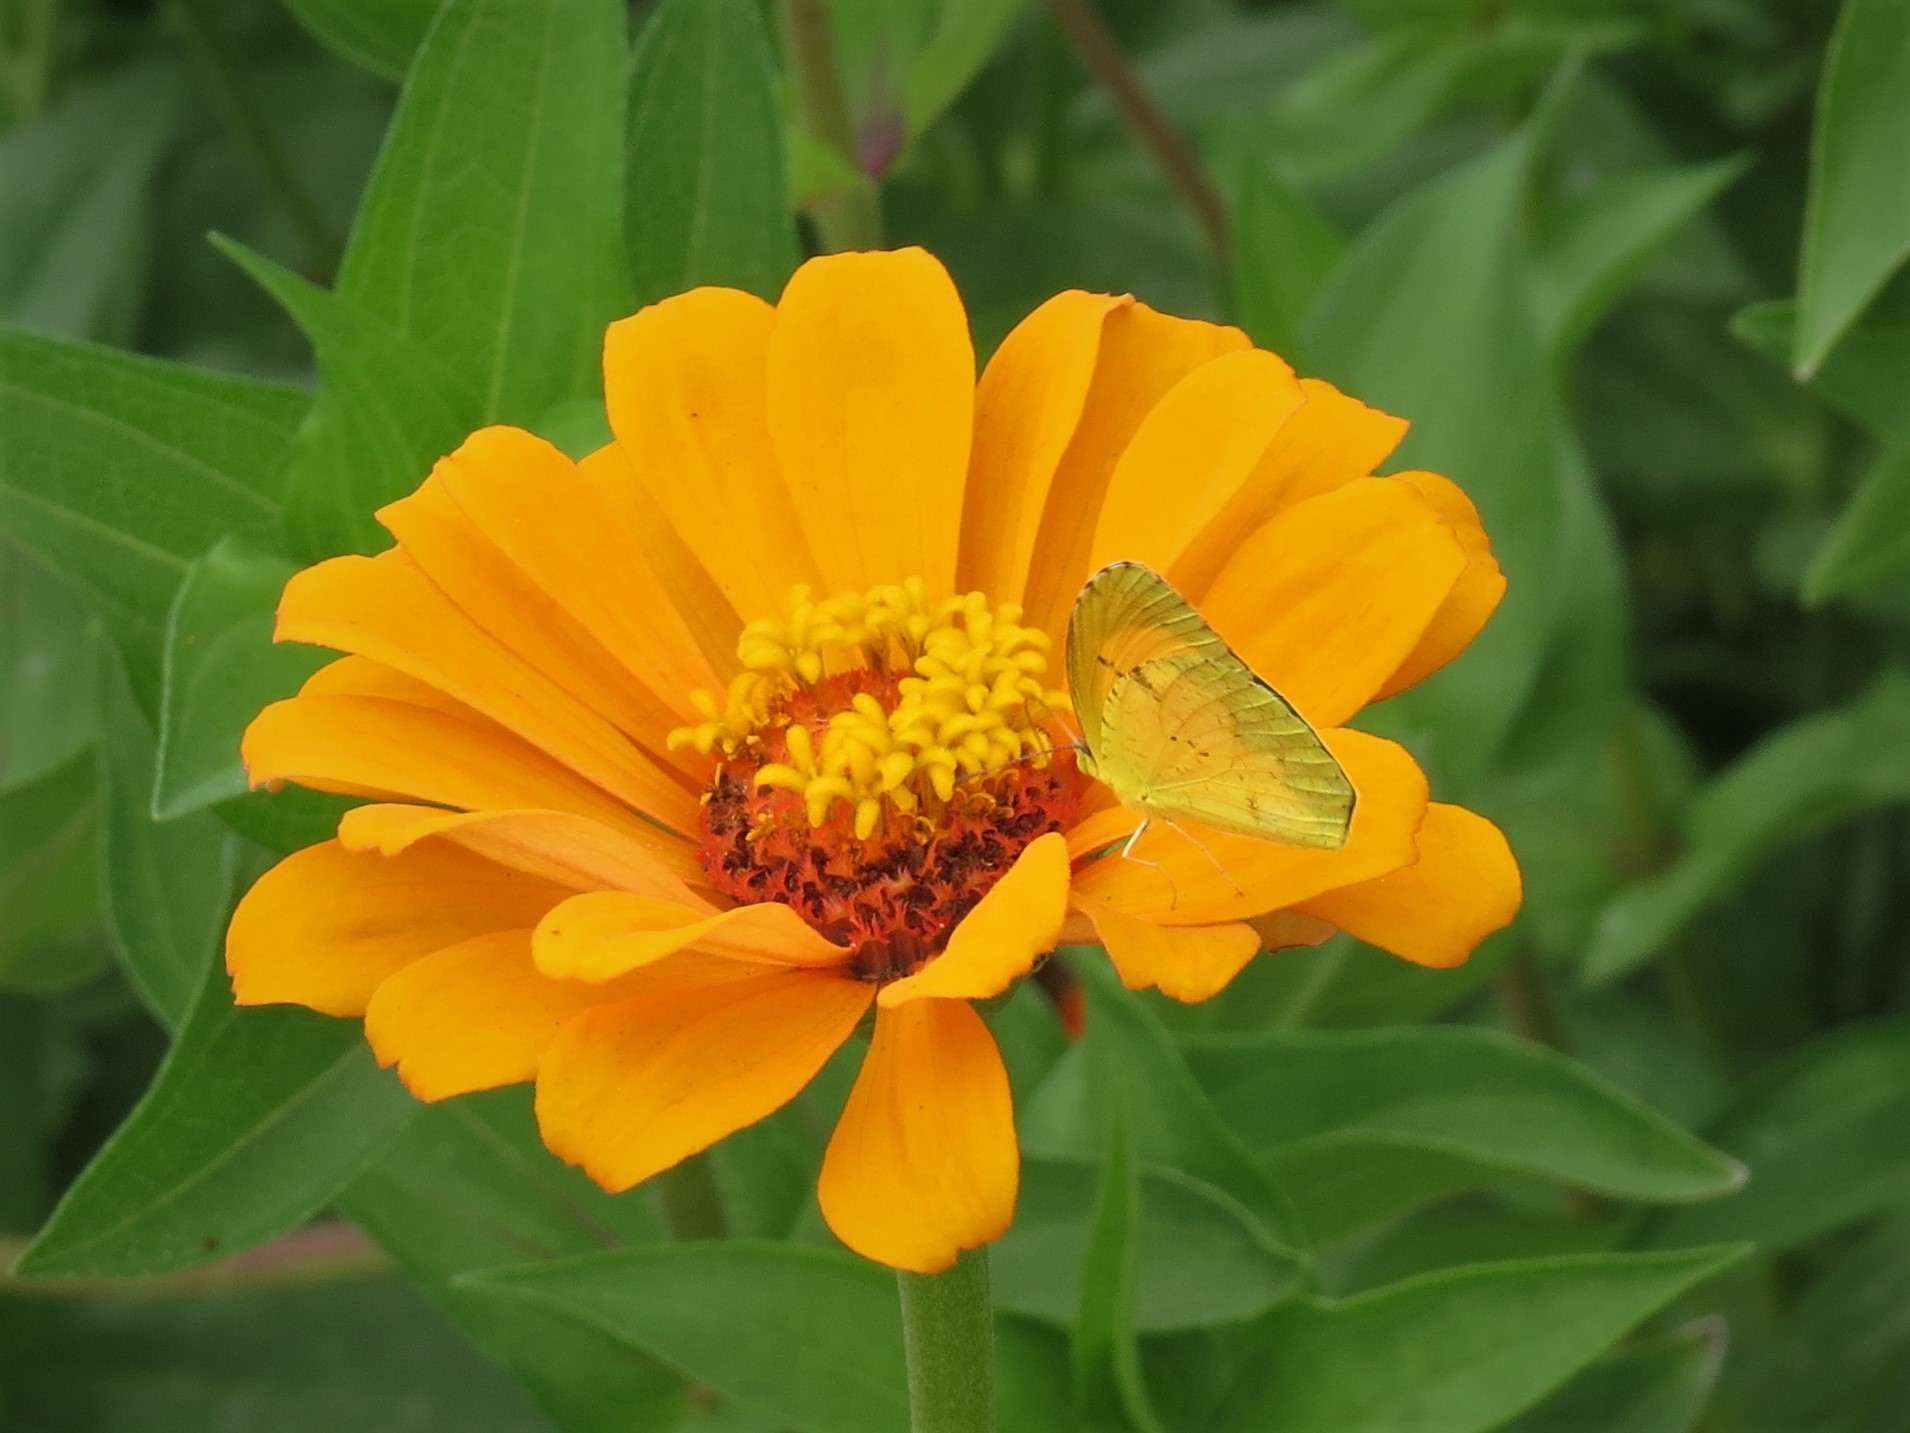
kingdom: Animalia
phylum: Arthropoda
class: Insecta
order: Lepidoptera
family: Pieridae
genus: Abaeis
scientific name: Abaeis nicippe
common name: Sleepy orange
